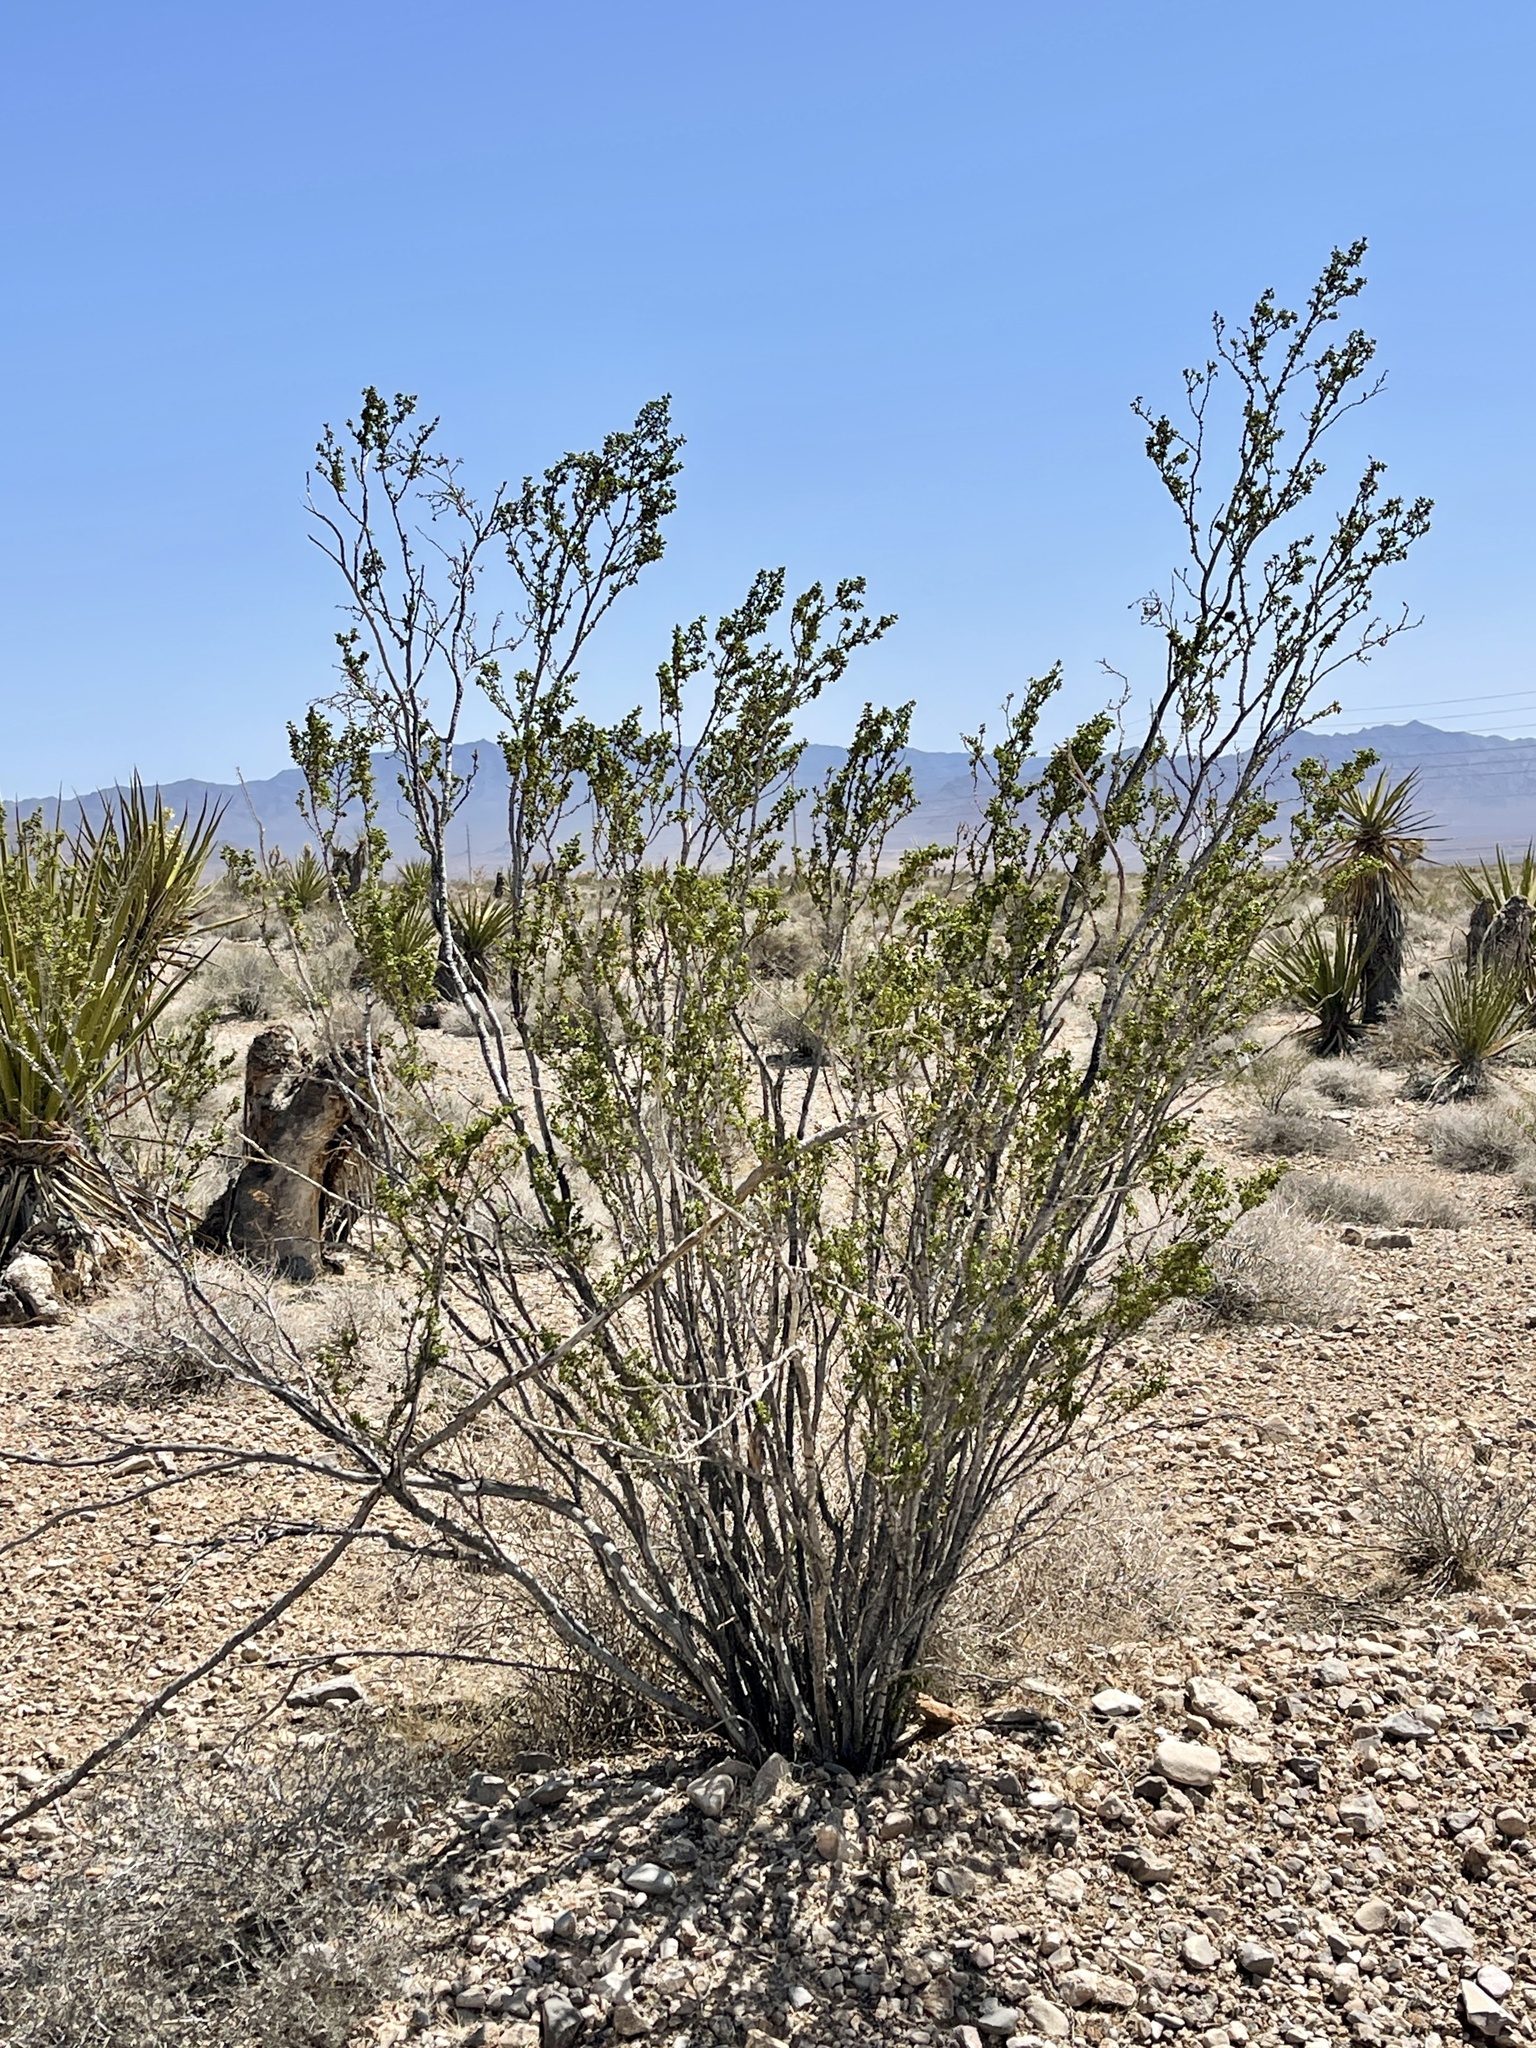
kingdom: Plantae
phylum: Tracheophyta
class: Magnoliopsida
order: Zygophyllales
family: Zygophyllaceae
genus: Larrea
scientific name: Larrea tridentata
